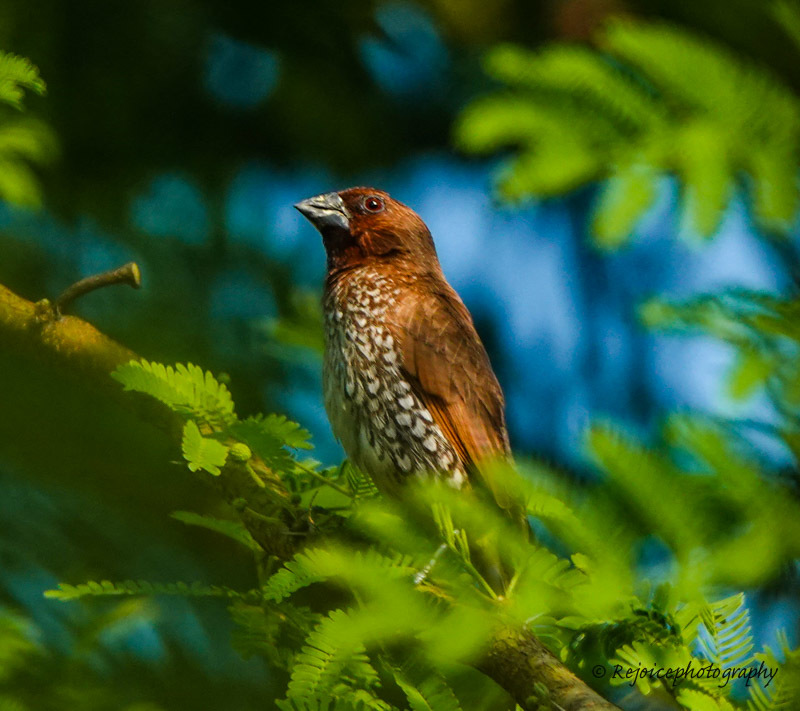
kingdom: Animalia
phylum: Chordata
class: Aves
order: Passeriformes
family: Estrildidae
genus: Lonchura
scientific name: Lonchura punctulata
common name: Scaly-breasted munia
